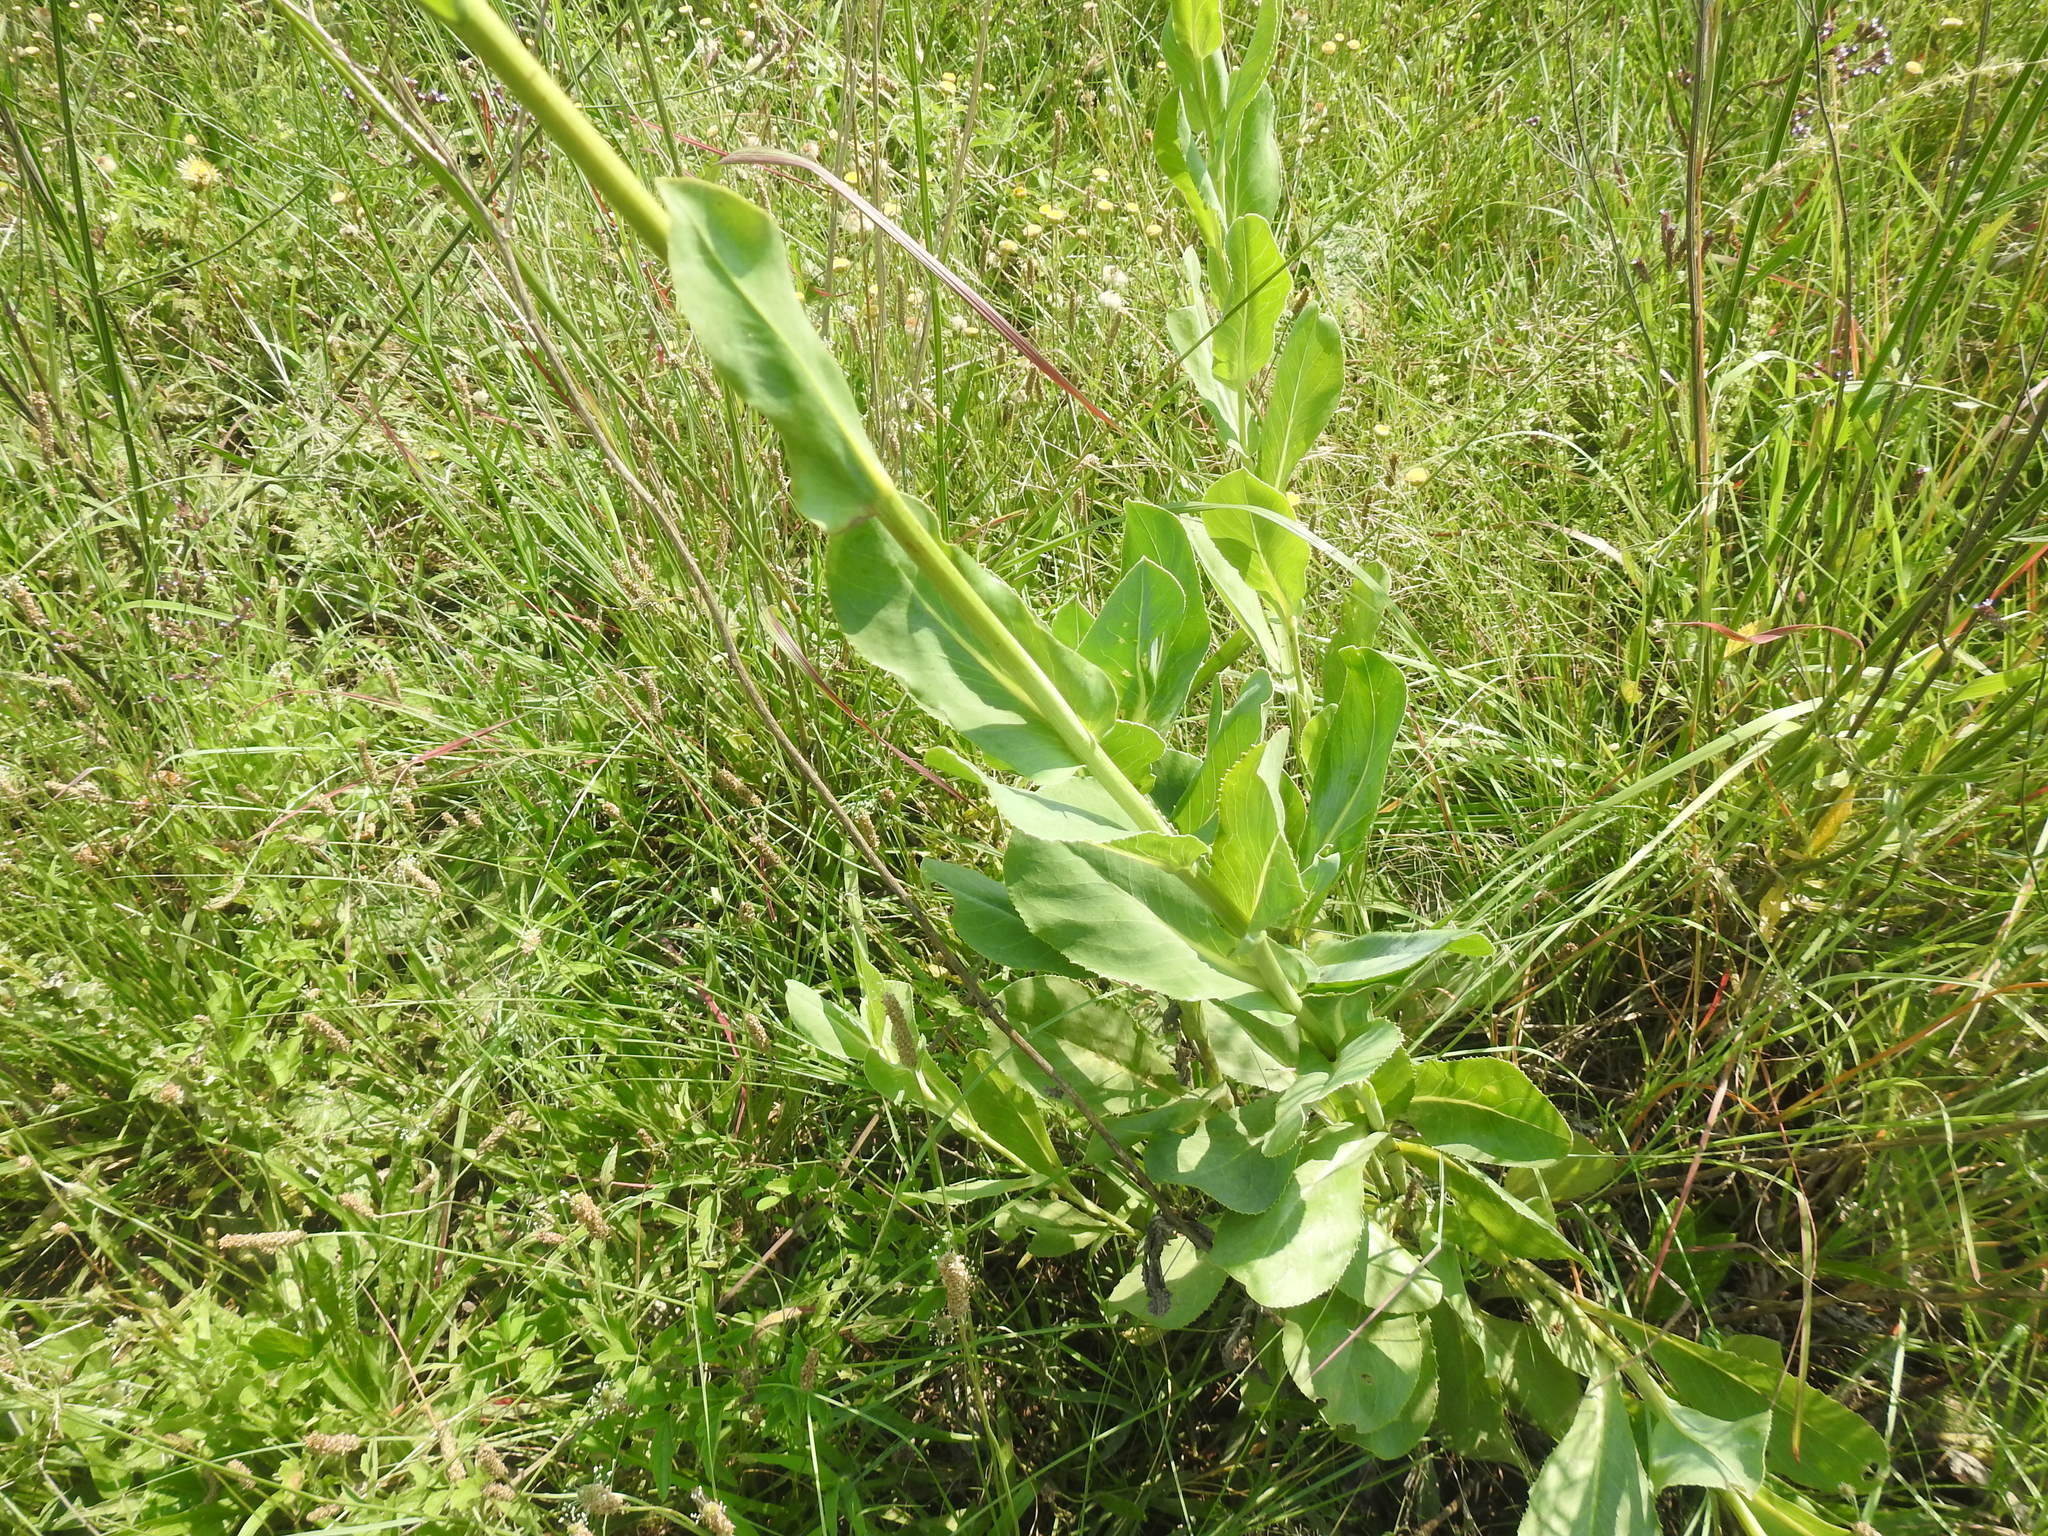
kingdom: Plantae
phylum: Tracheophyta
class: Magnoliopsida
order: Asterales
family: Asteraceae
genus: Senecio
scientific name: Senecio venosus
